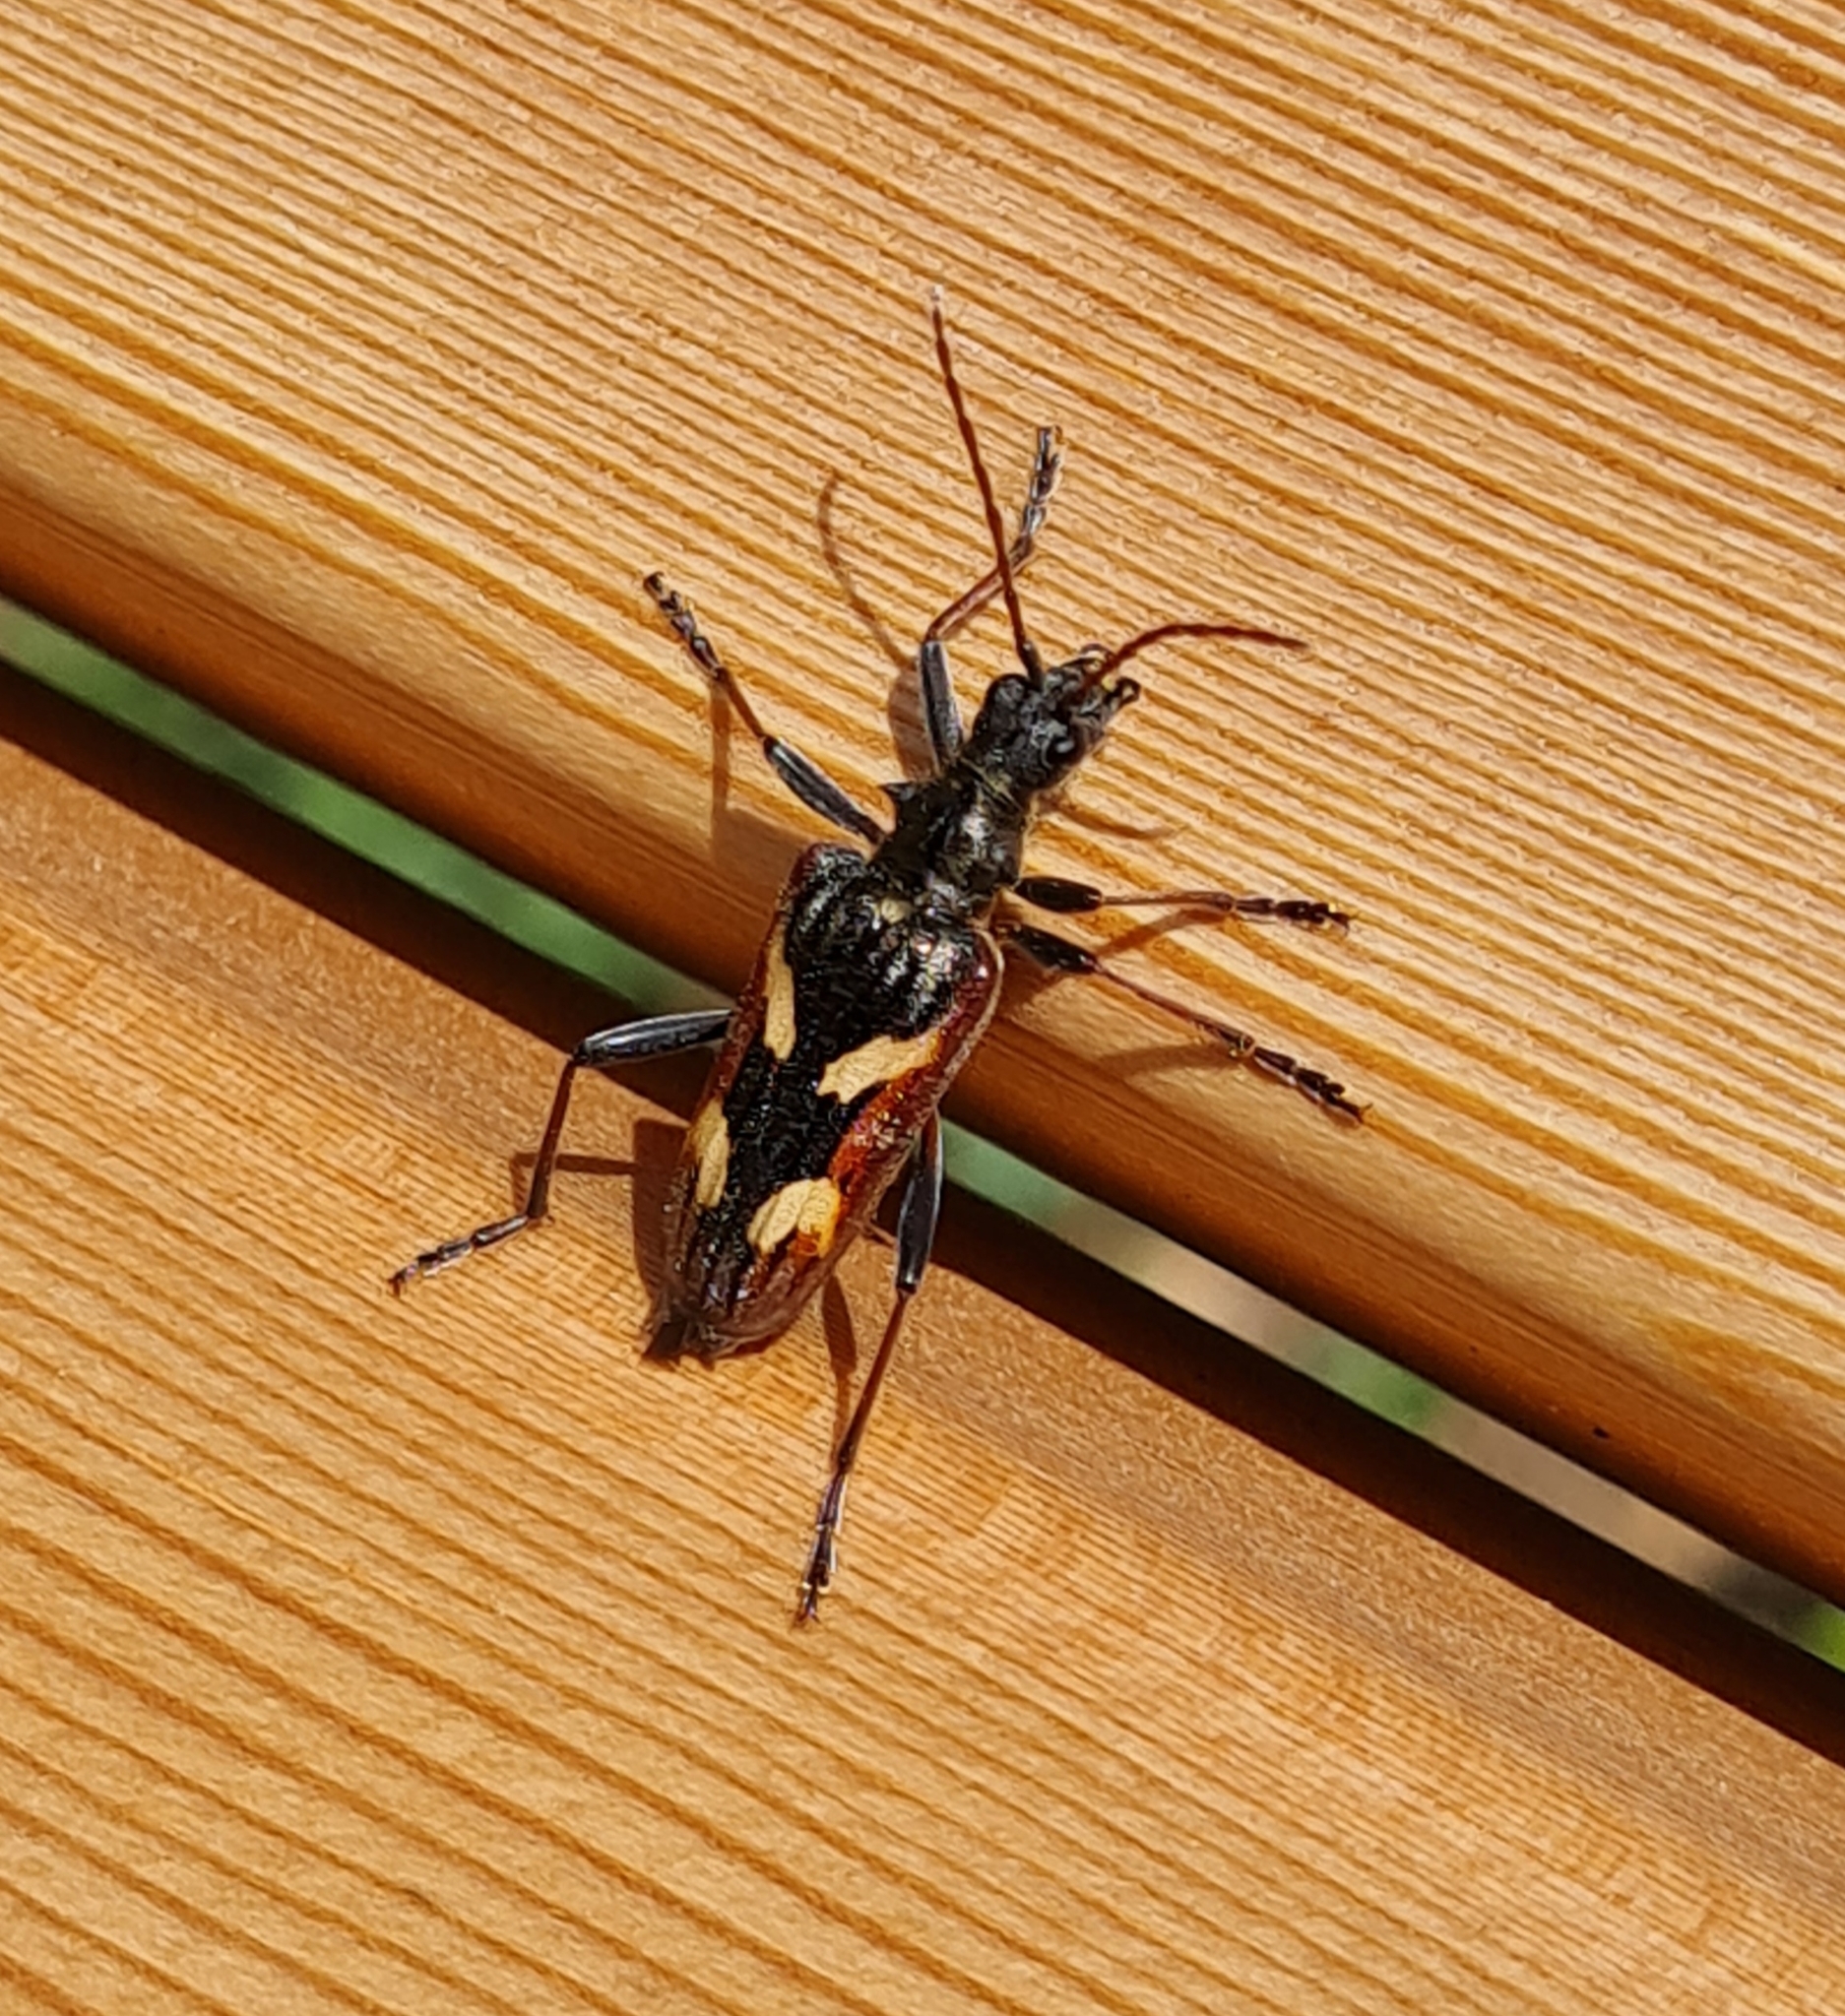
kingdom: Animalia
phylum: Arthropoda
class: Insecta
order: Coleoptera
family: Cerambycidae
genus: Rhagium
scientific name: Rhagium bifasciatum
